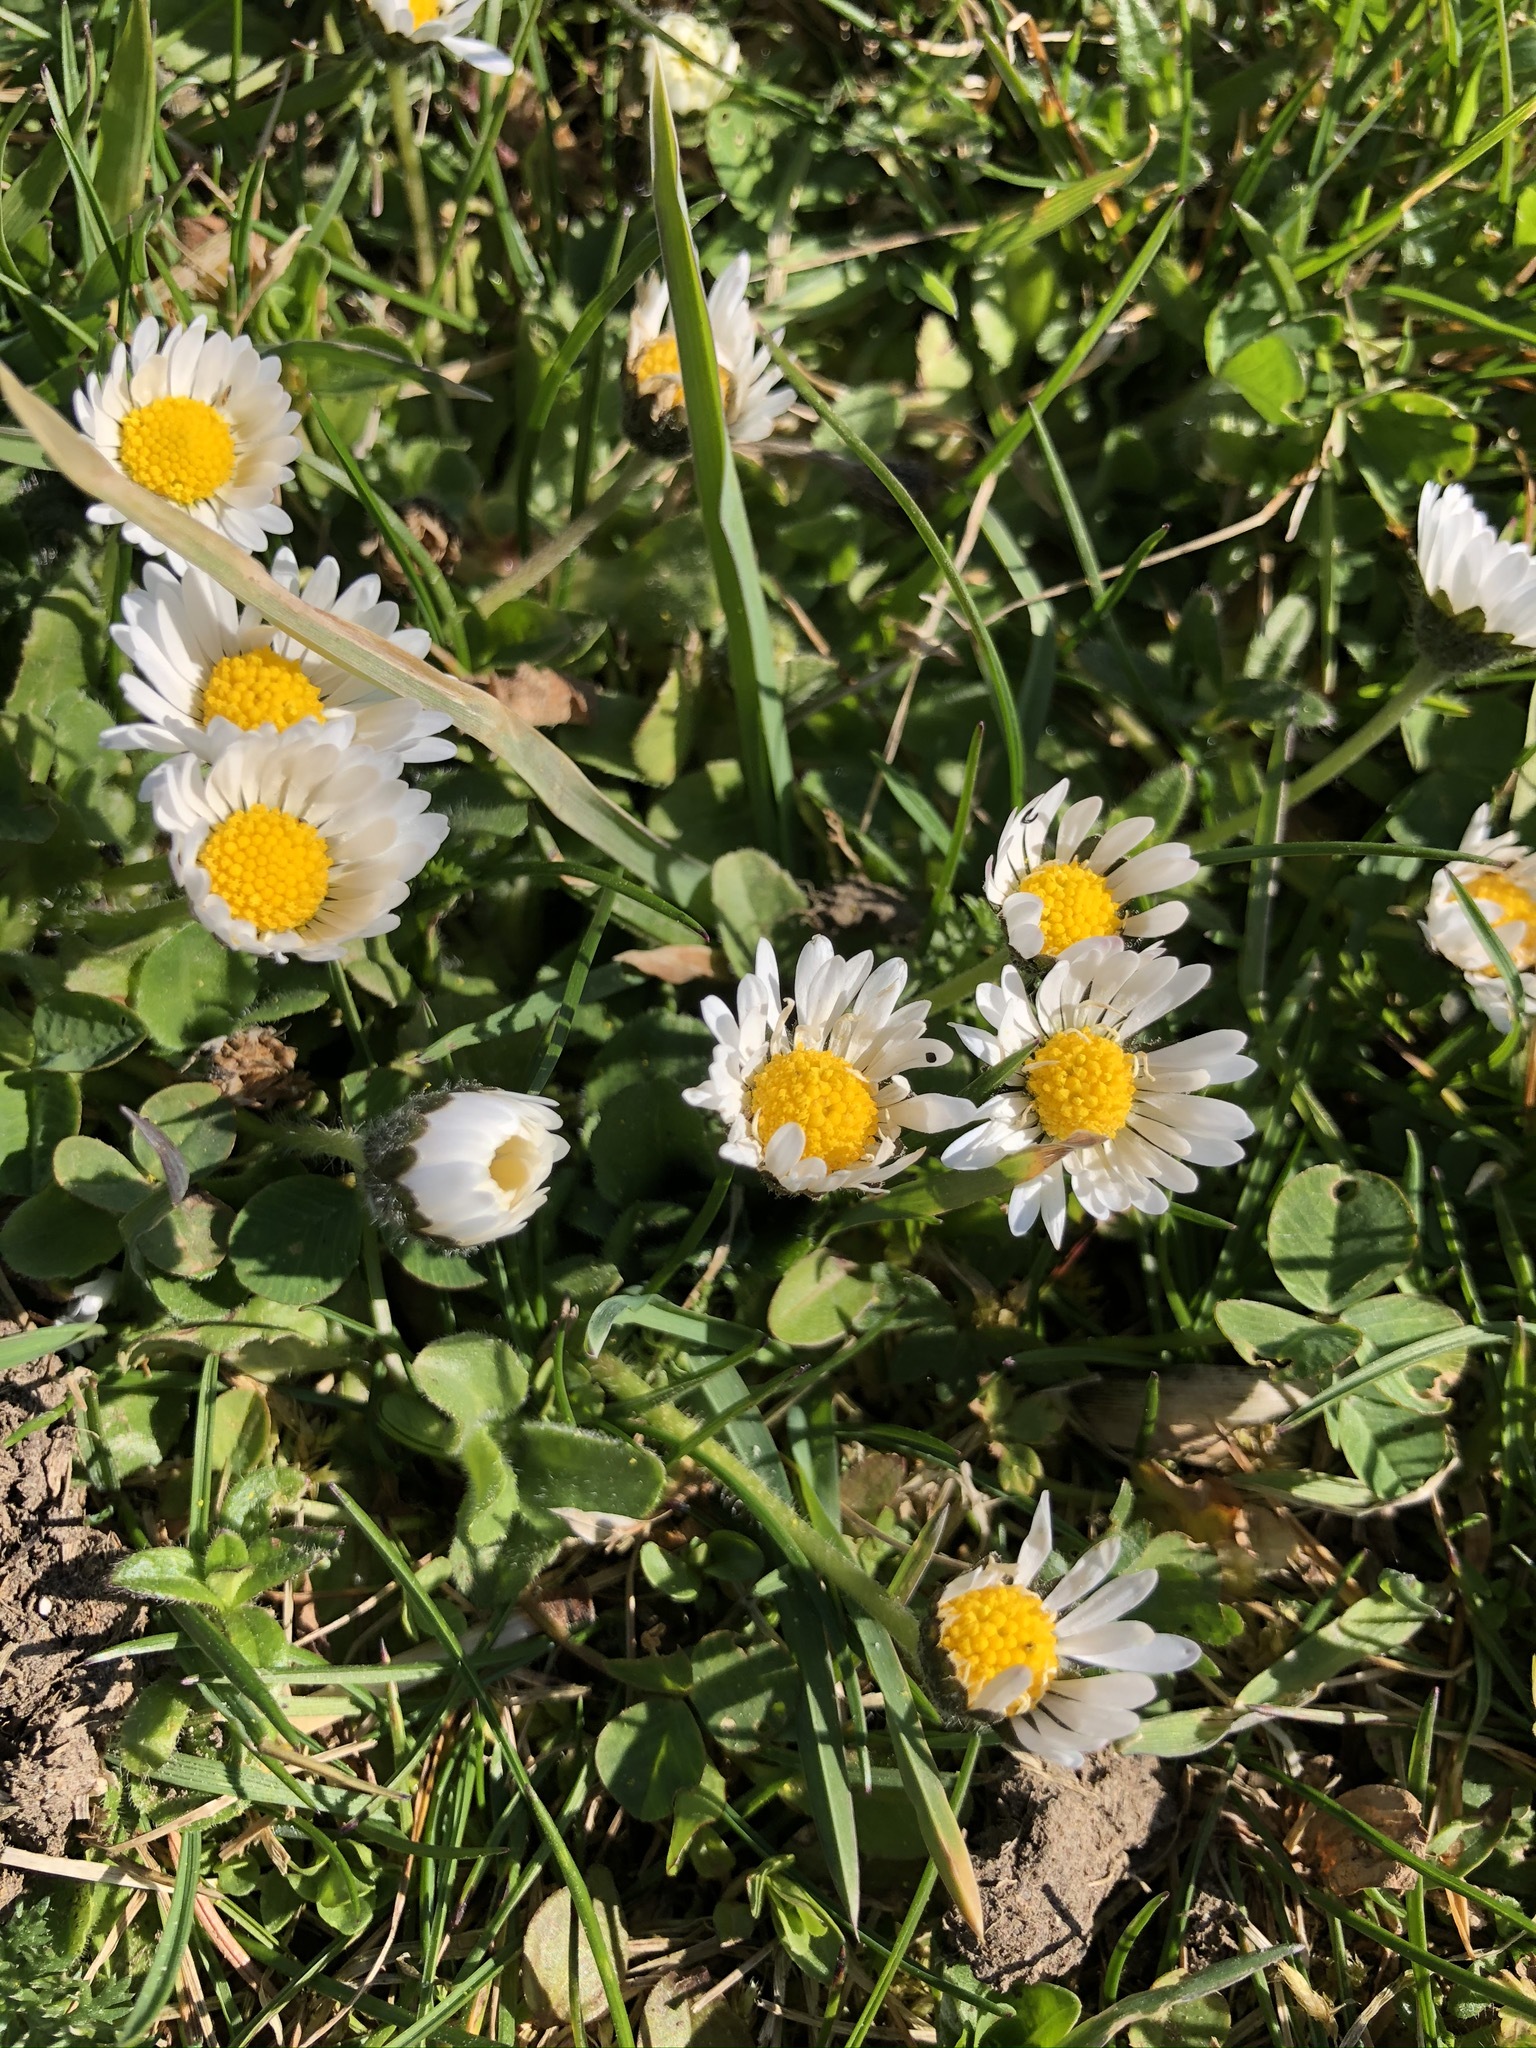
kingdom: Plantae
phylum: Tracheophyta
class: Magnoliopsida
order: Asterales
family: Asteraceae
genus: Bellis
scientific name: Bellis perennis
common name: Lawndaisy
